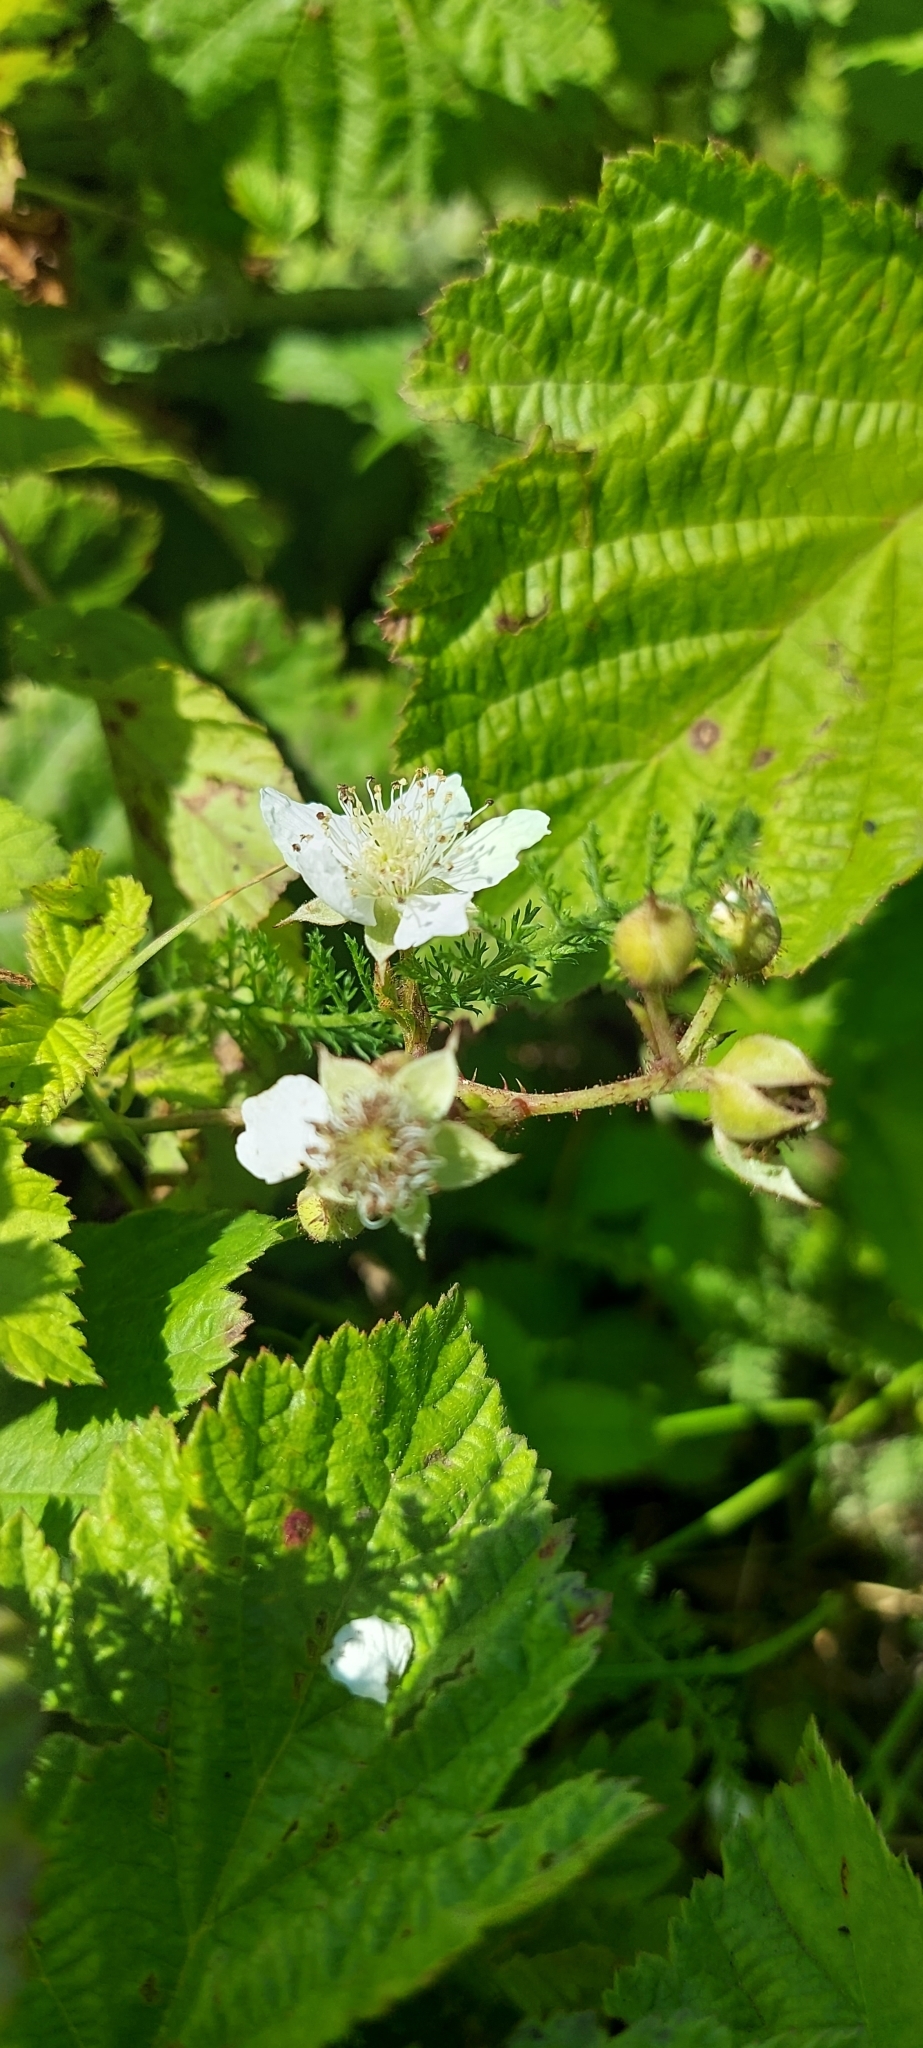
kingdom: Plantae
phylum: Tracheophyta
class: Magnoliopsida
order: Rosales
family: Rosaceae
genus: Rubus
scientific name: Rubus caesius
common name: Dewberry
